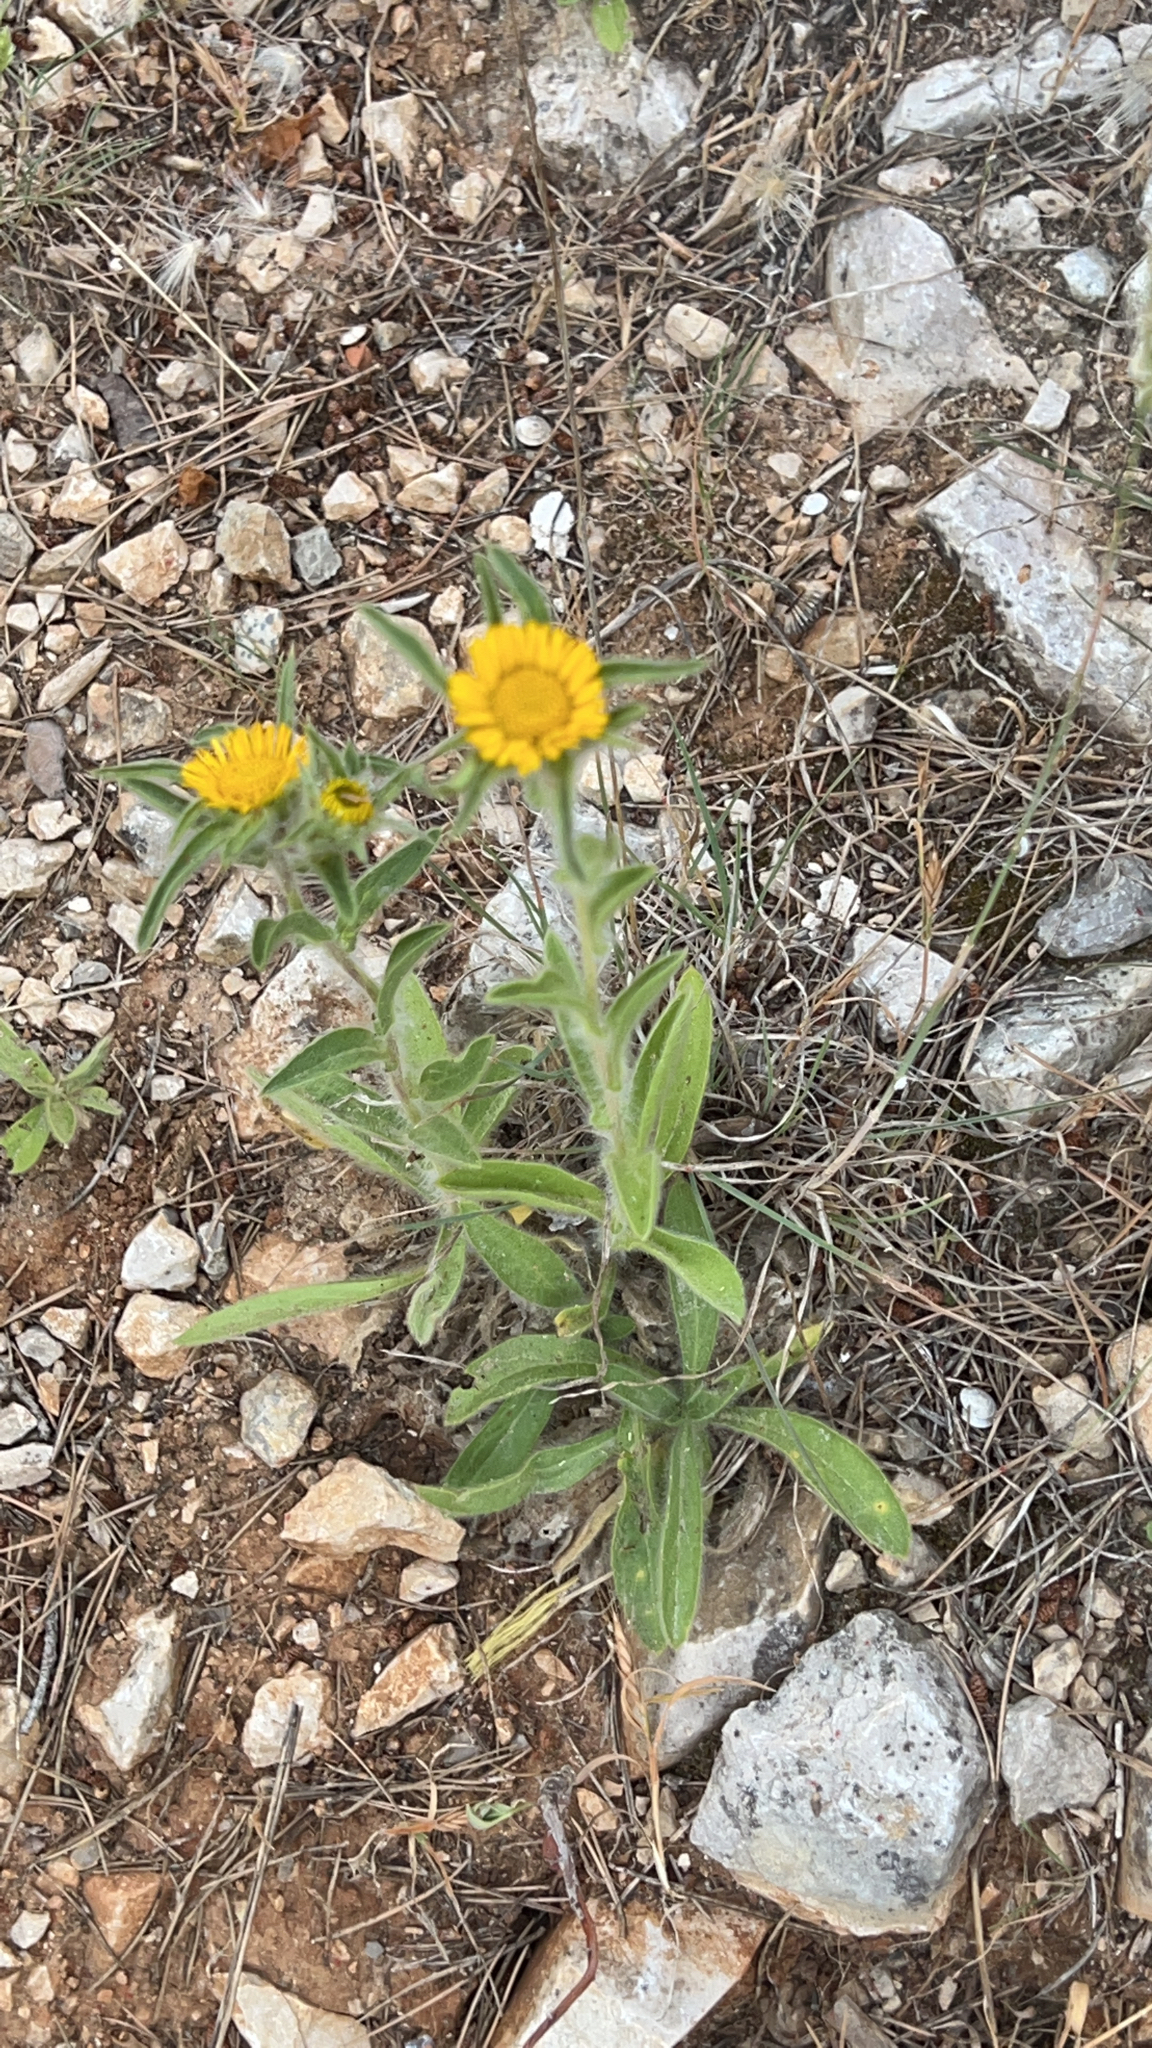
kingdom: Plantae
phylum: Tracheophyta
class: Magnoliopsida
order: Asterales
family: Asteraceae
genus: Pallenis
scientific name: Pallenis spinosa
